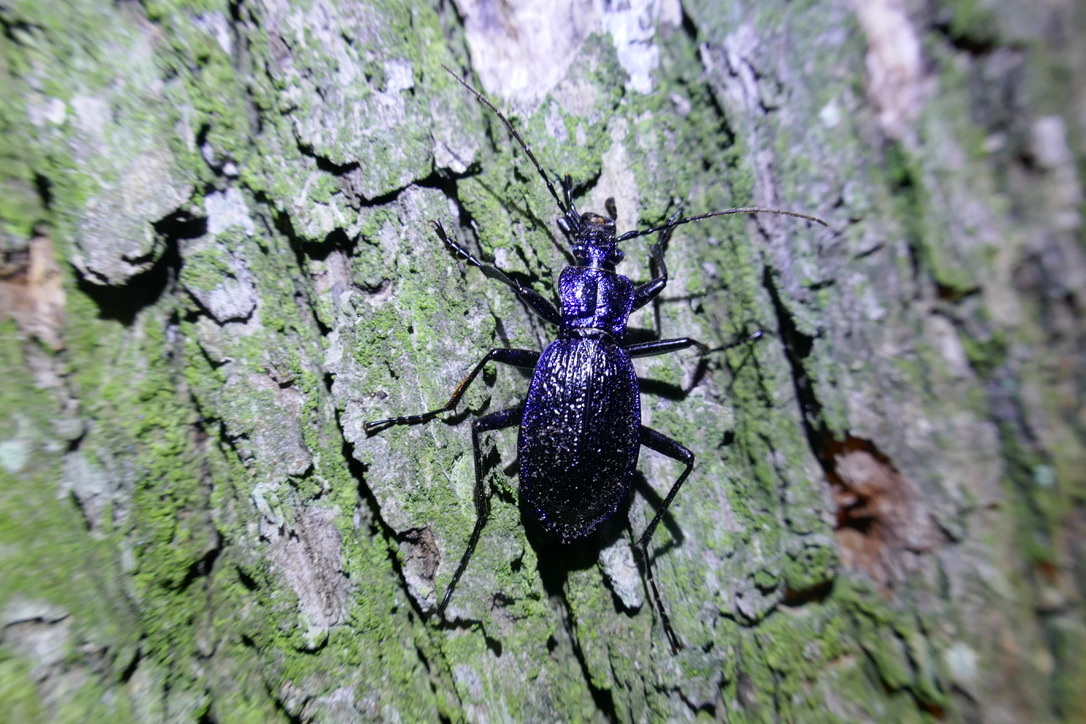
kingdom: Animalia
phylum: Arthropoda
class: Insecta
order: Coleoptera
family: Carabidae
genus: Carabus
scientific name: Carabus intricatus
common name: Blue ground beetle
